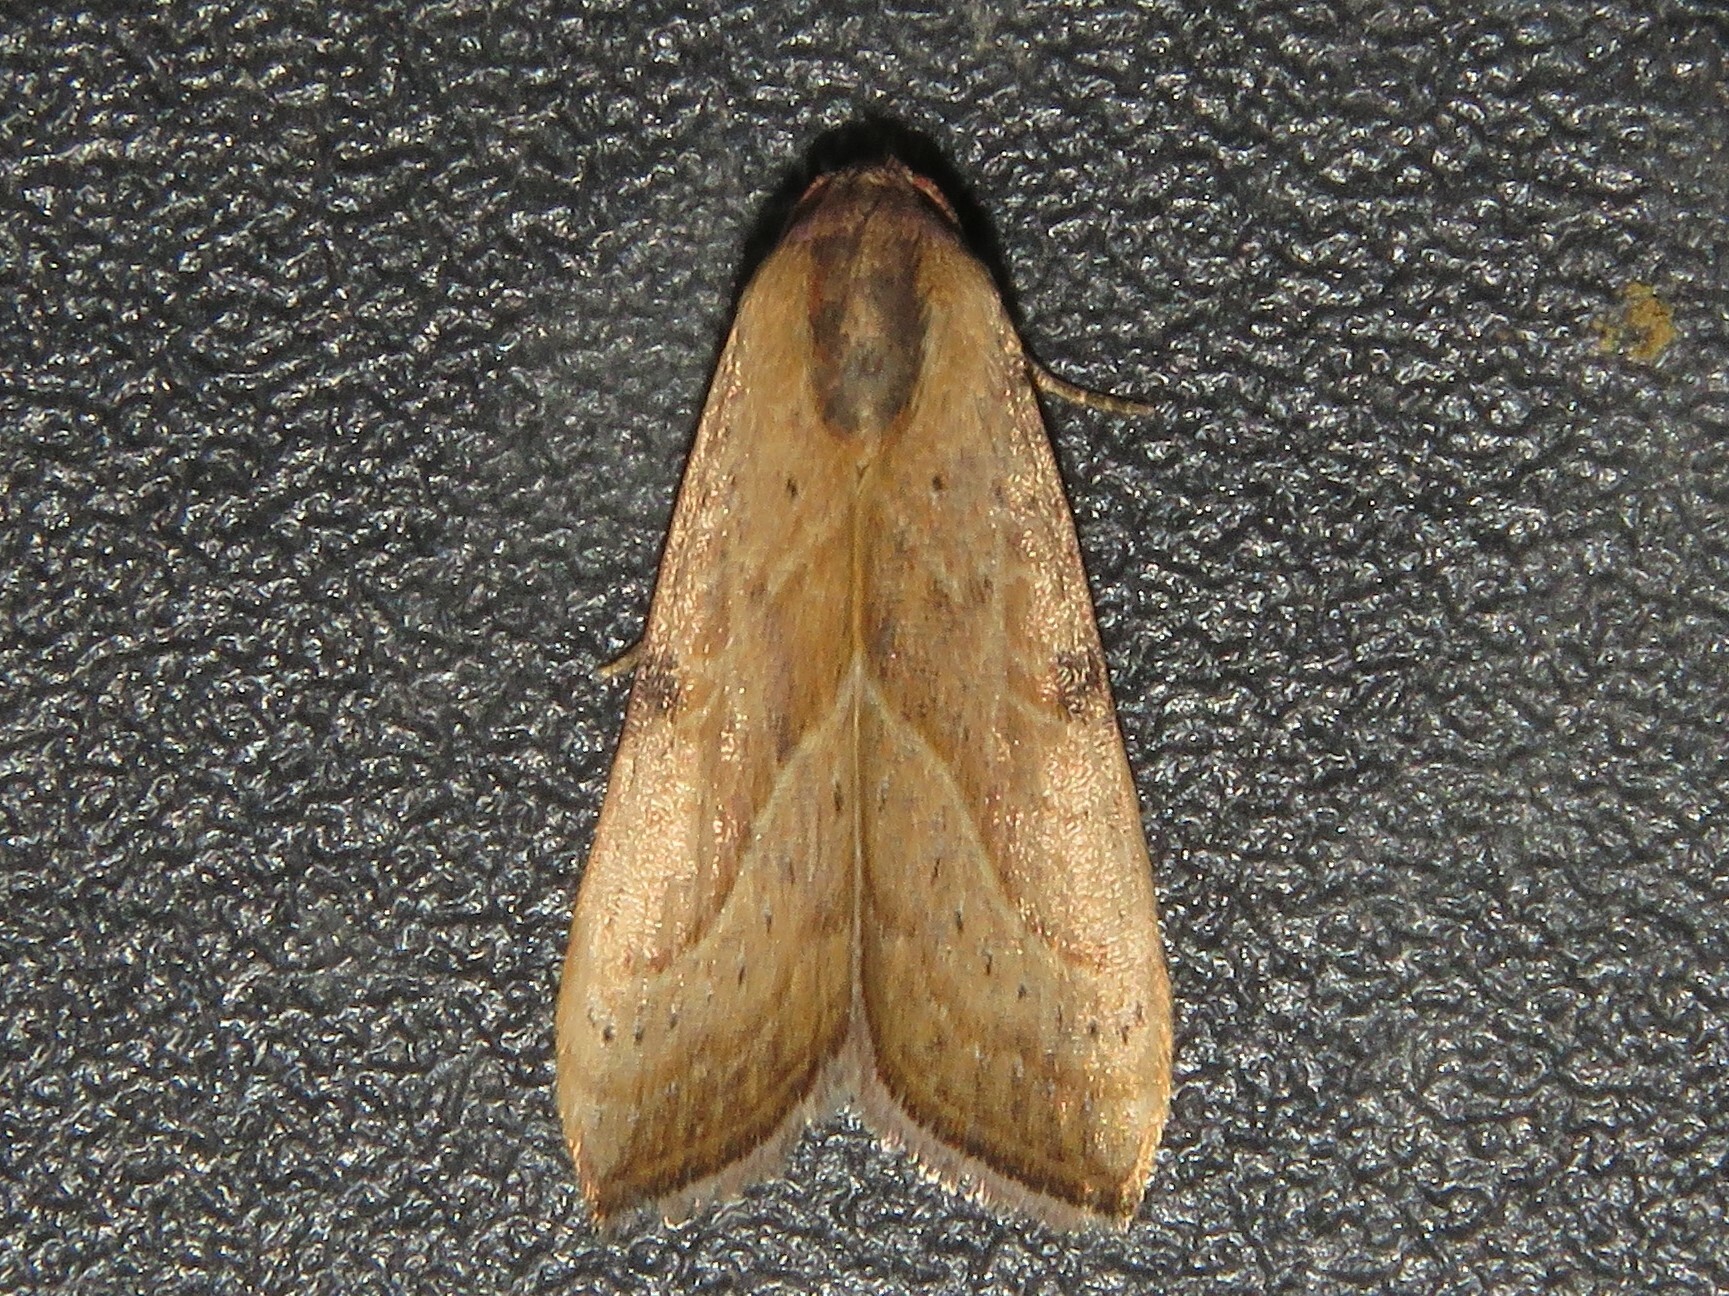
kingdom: Animalia
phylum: Arthropoda
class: Insecta
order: Lepidoptera
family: Noctuidae
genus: Galgula
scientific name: Galgula partita
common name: Wedgeling
